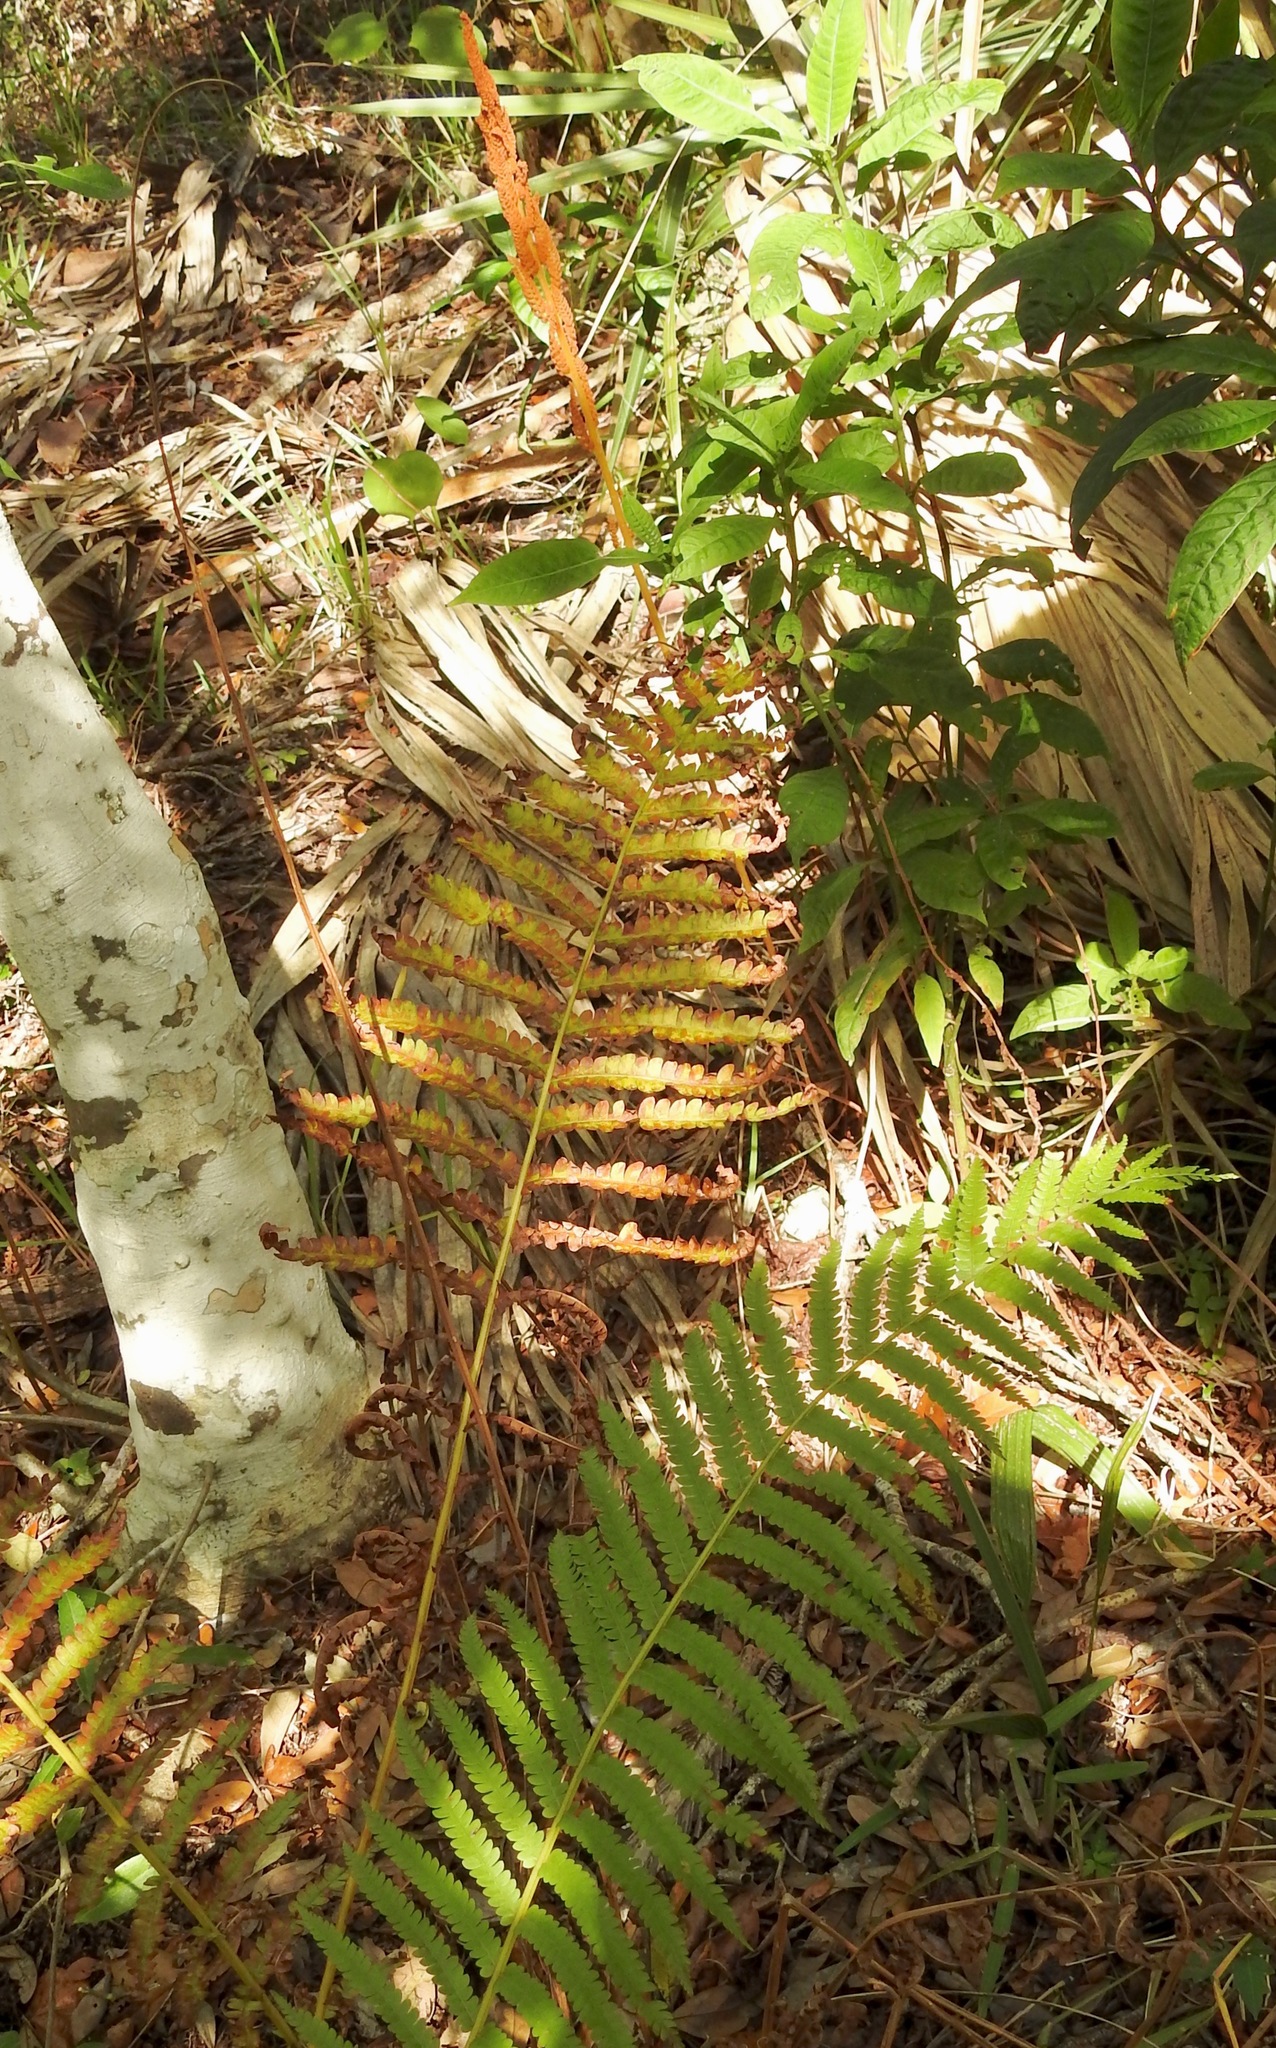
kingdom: Plantae
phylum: Tracheophyta
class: Polypodiopsida
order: Osmundales
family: Osmundaceae
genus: Osmundastrum
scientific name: Osmundastrum cinnamomeum
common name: Cinnamon fern
